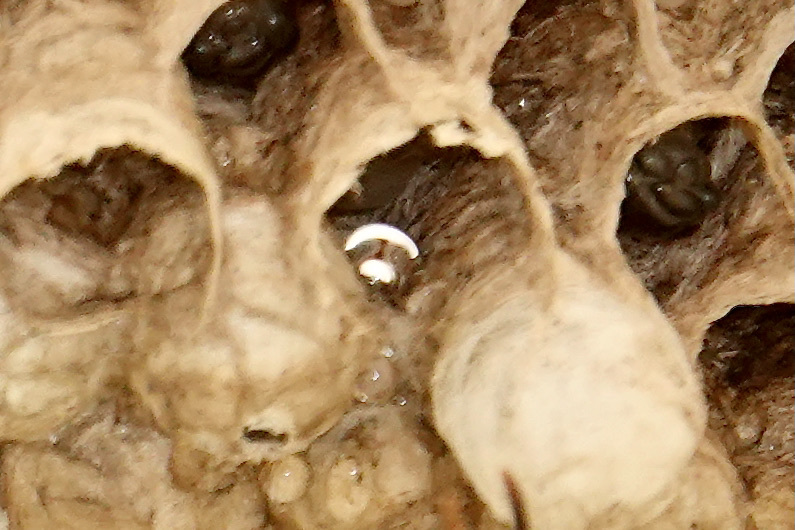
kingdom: Animalia
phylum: Arthropoda
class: Insecta
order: Hymenoptera
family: Eumenidae
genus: Polistes
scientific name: Polistes dorsalis
